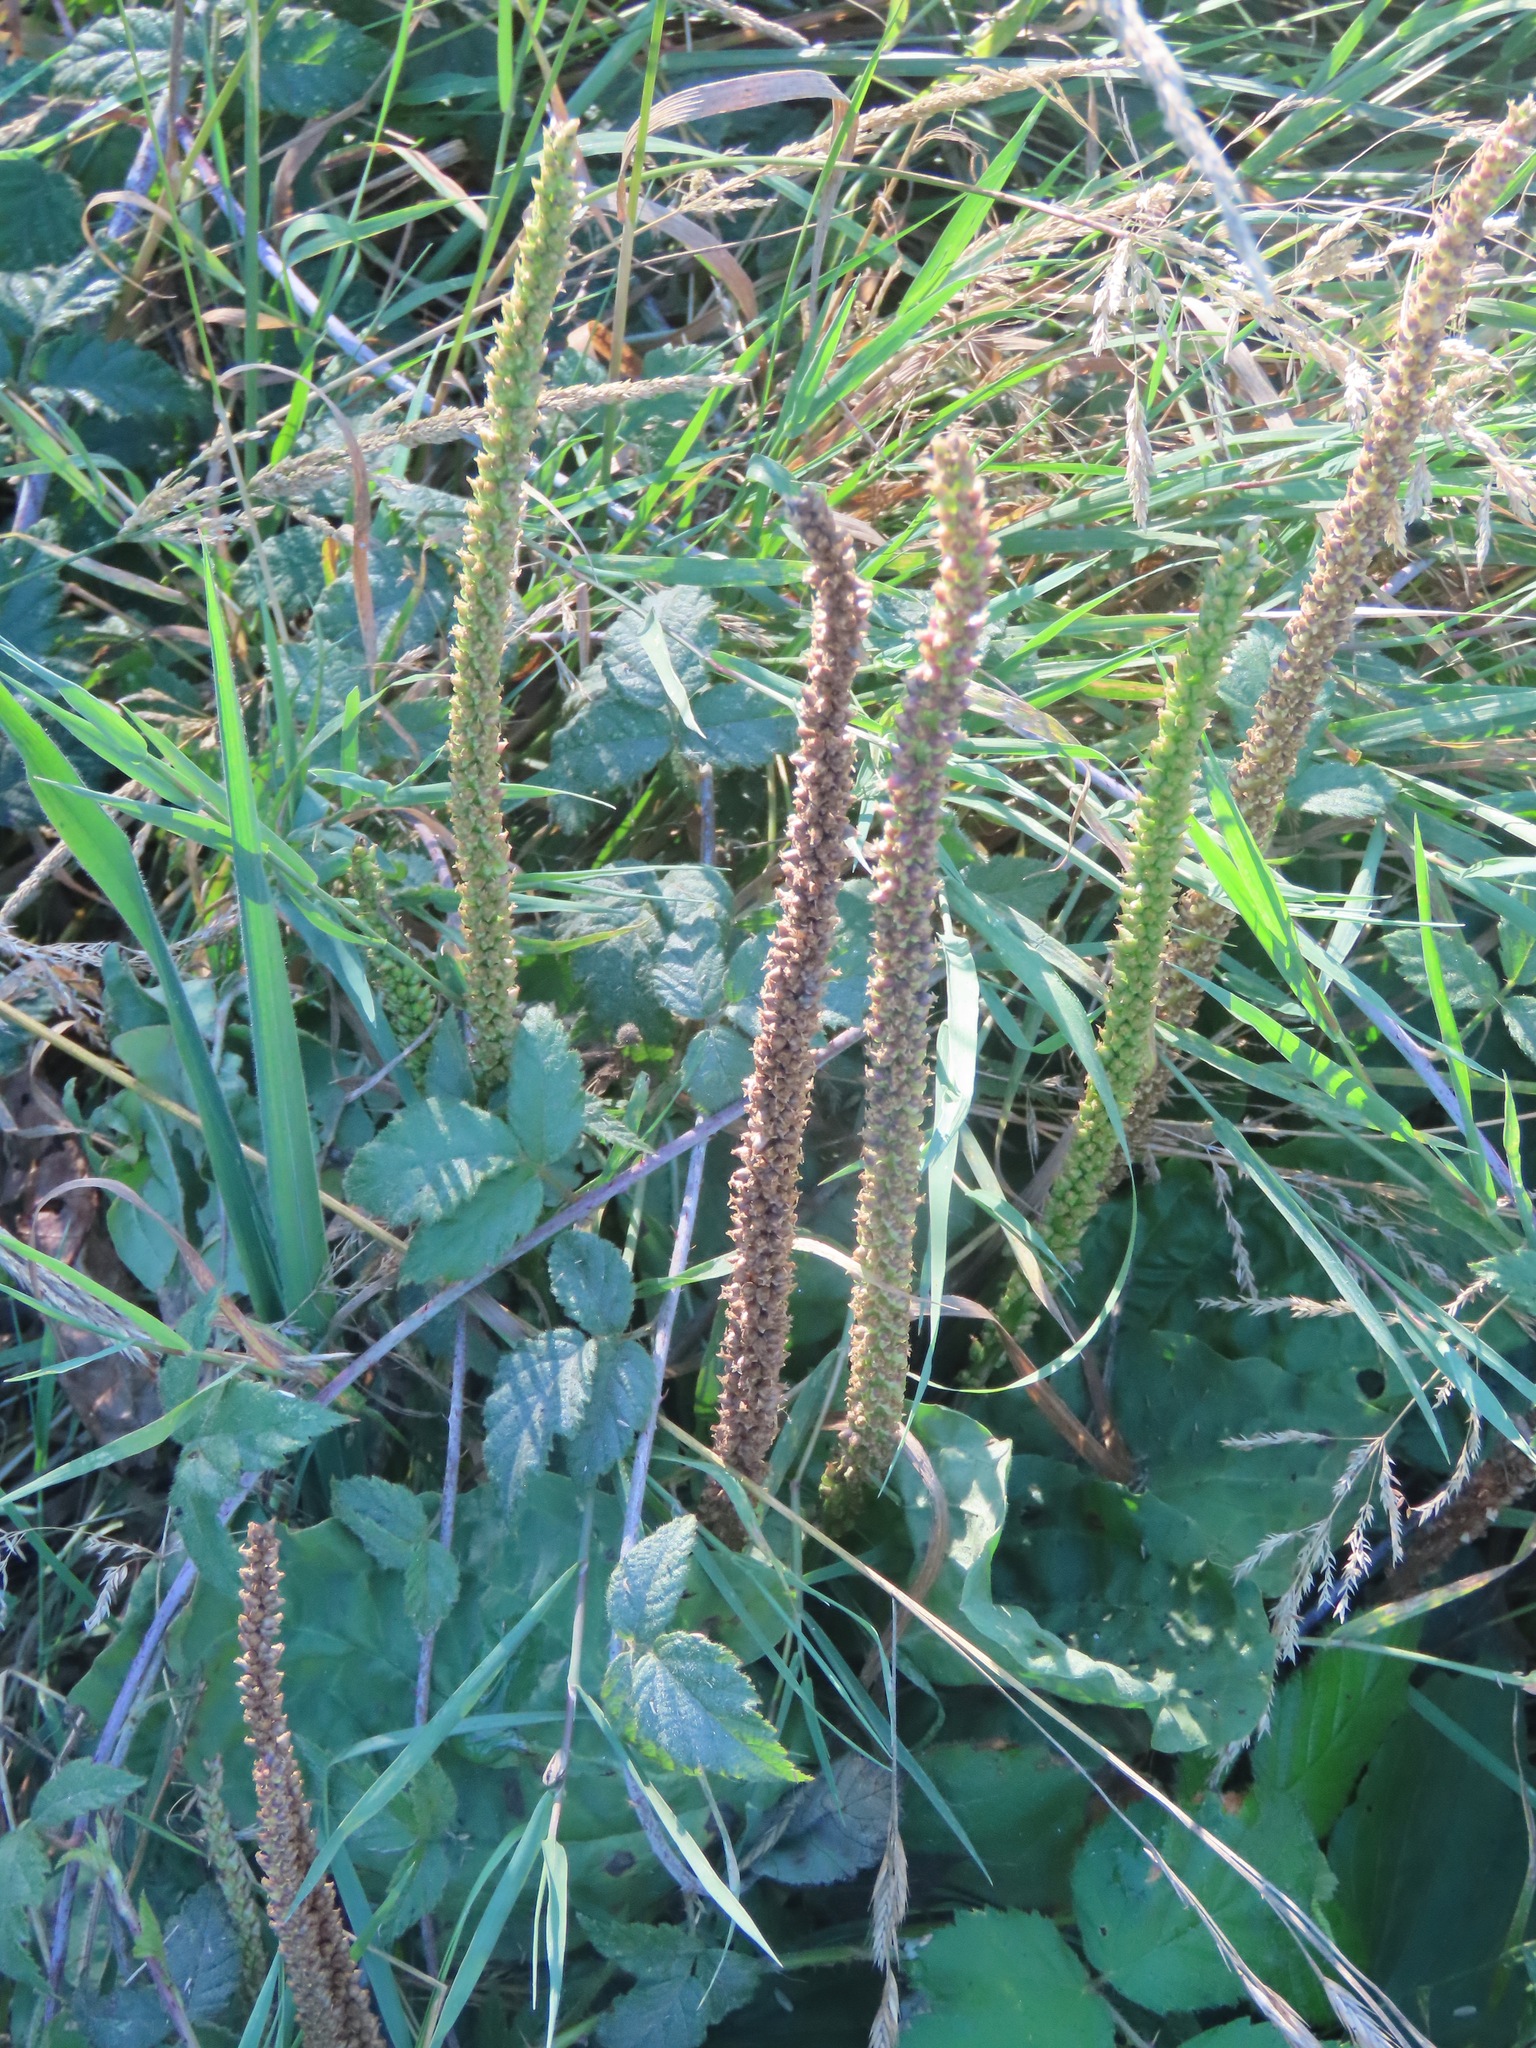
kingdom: Plantae
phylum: Tracheophyta
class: Magnoliopsida
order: Lamiales
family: Plantaginaceae
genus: Plantago
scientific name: Plantago major
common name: Common plantain
